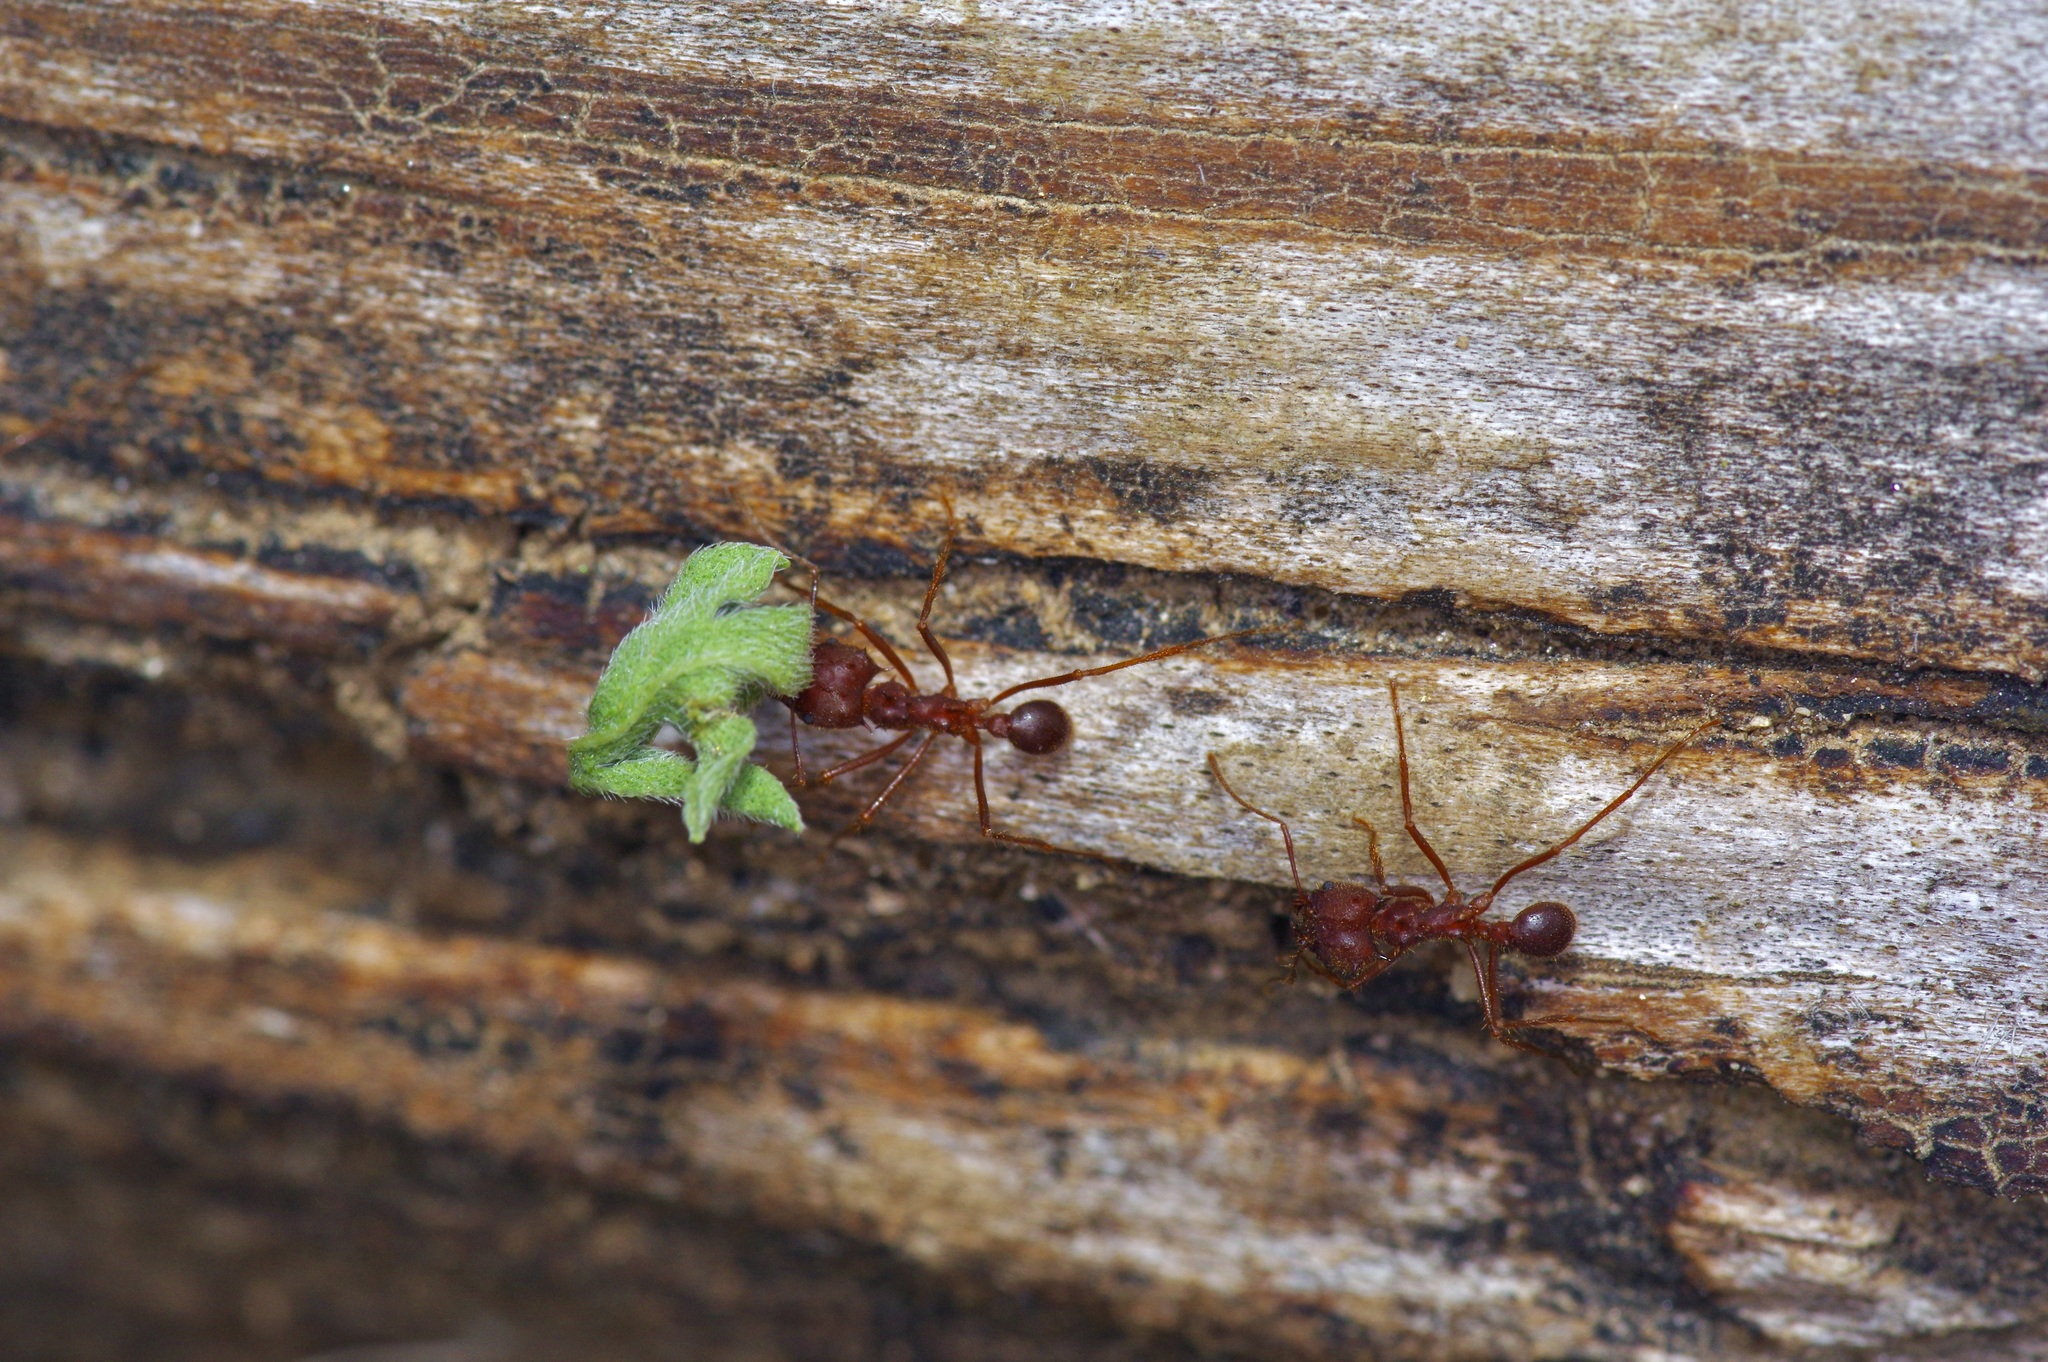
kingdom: Animalia
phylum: Arthropoda
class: Insecta
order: Hymenoptera
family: Formicidae
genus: Atta
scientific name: Atta texana
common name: Texas leafcutting ant
